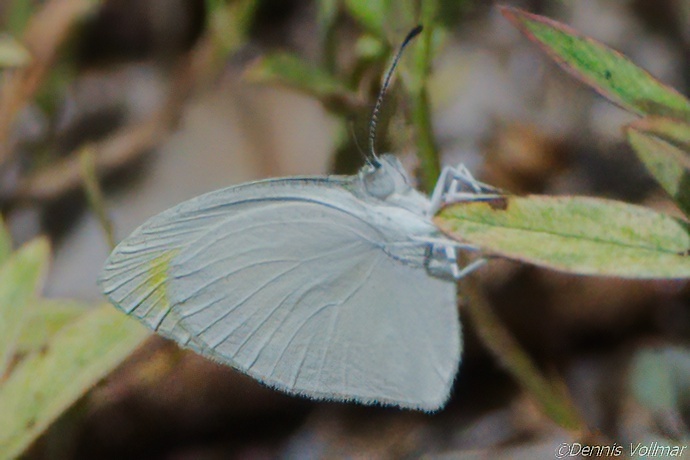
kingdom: Animalia
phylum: Arthropoda
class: Insecta
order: Lepidoptera
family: Pieridae
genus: Eurema
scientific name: Eurema daira
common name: Barred sulphur
